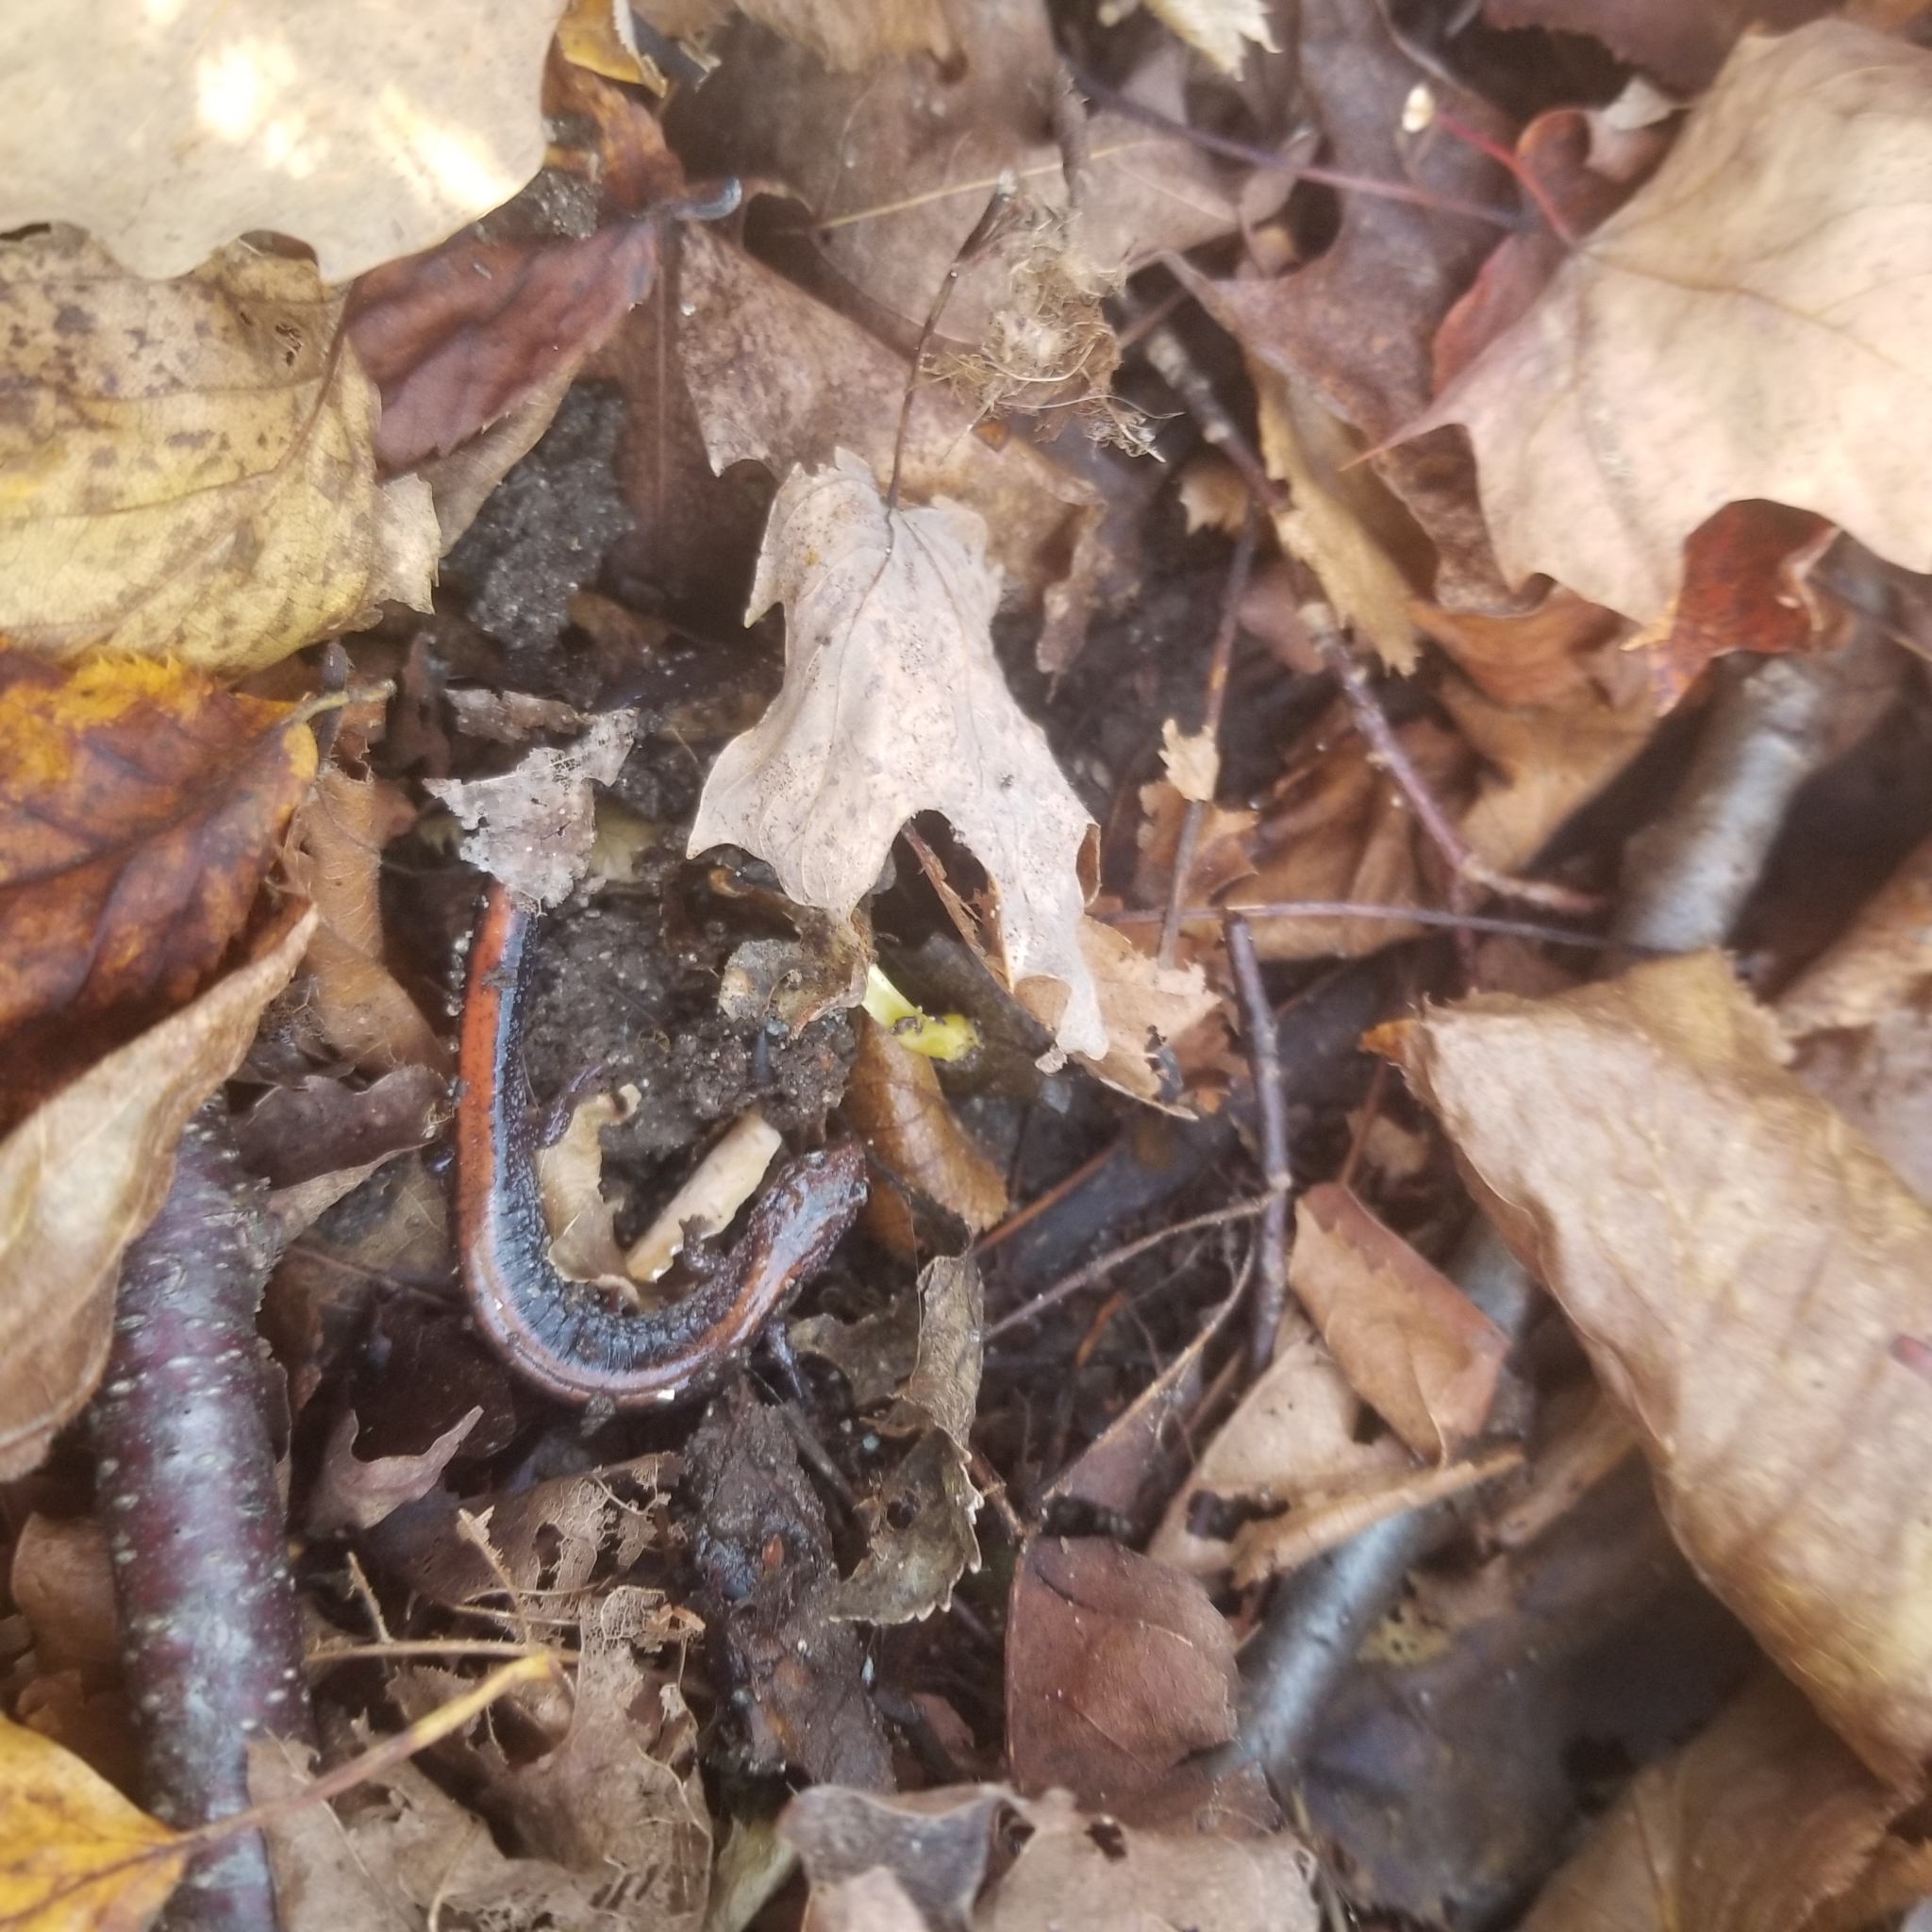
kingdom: Animalia
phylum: Chordata
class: Amphibia
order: Caudata
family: Plethodontidae
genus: Plethodon
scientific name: Plethodon cinereus
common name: Redback salamander
